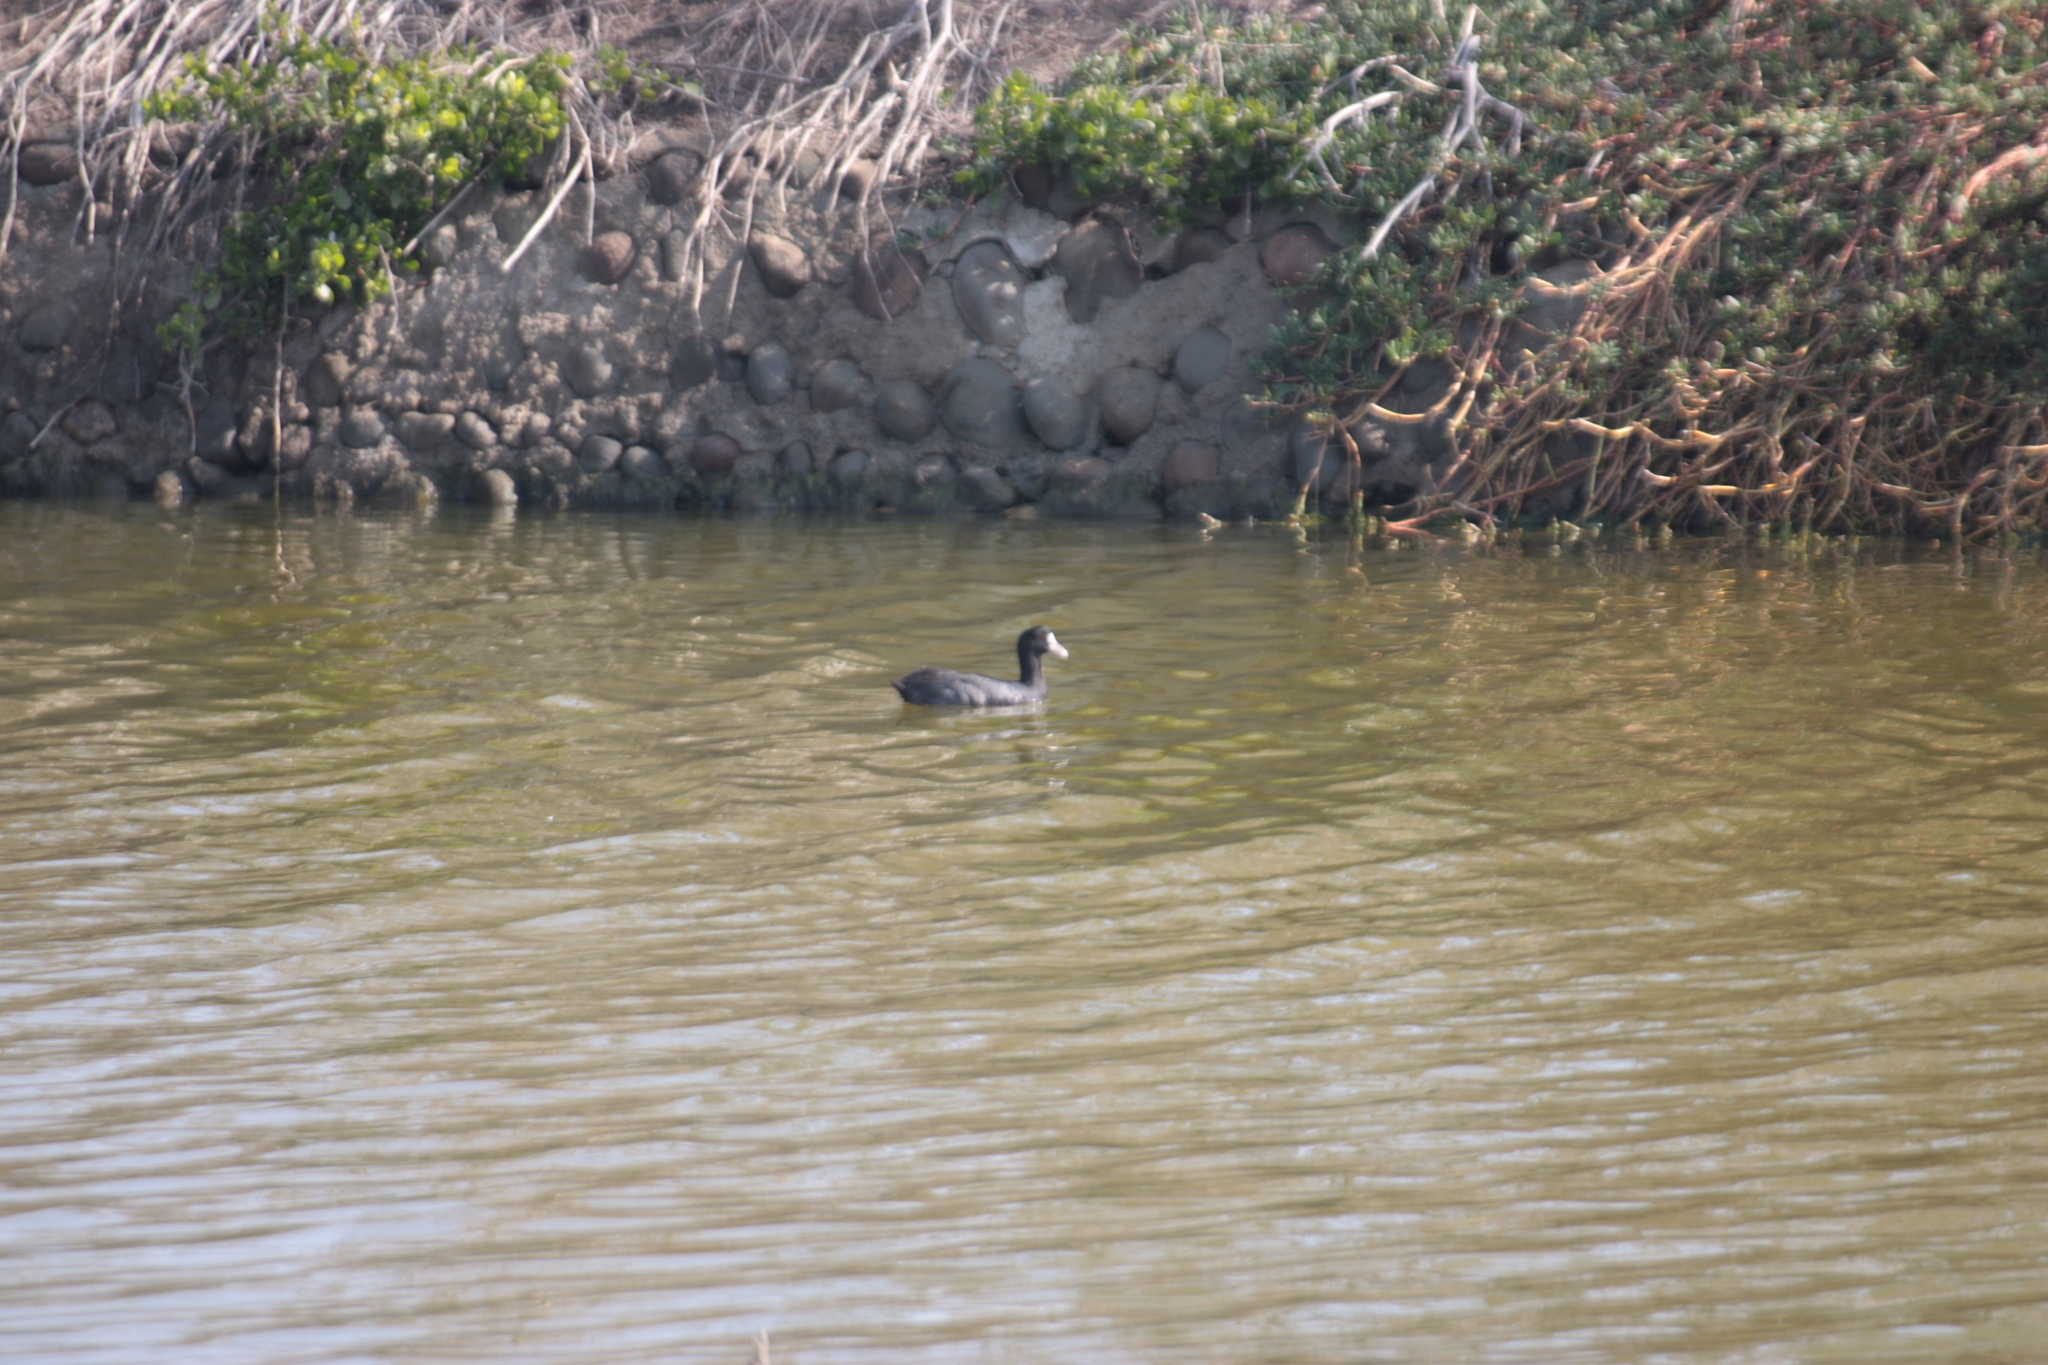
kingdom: Animalia
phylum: Chordata
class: Aves
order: Gruiformes
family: Rallidae
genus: Fulica
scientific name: Fulica atra
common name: Eurasian coot
